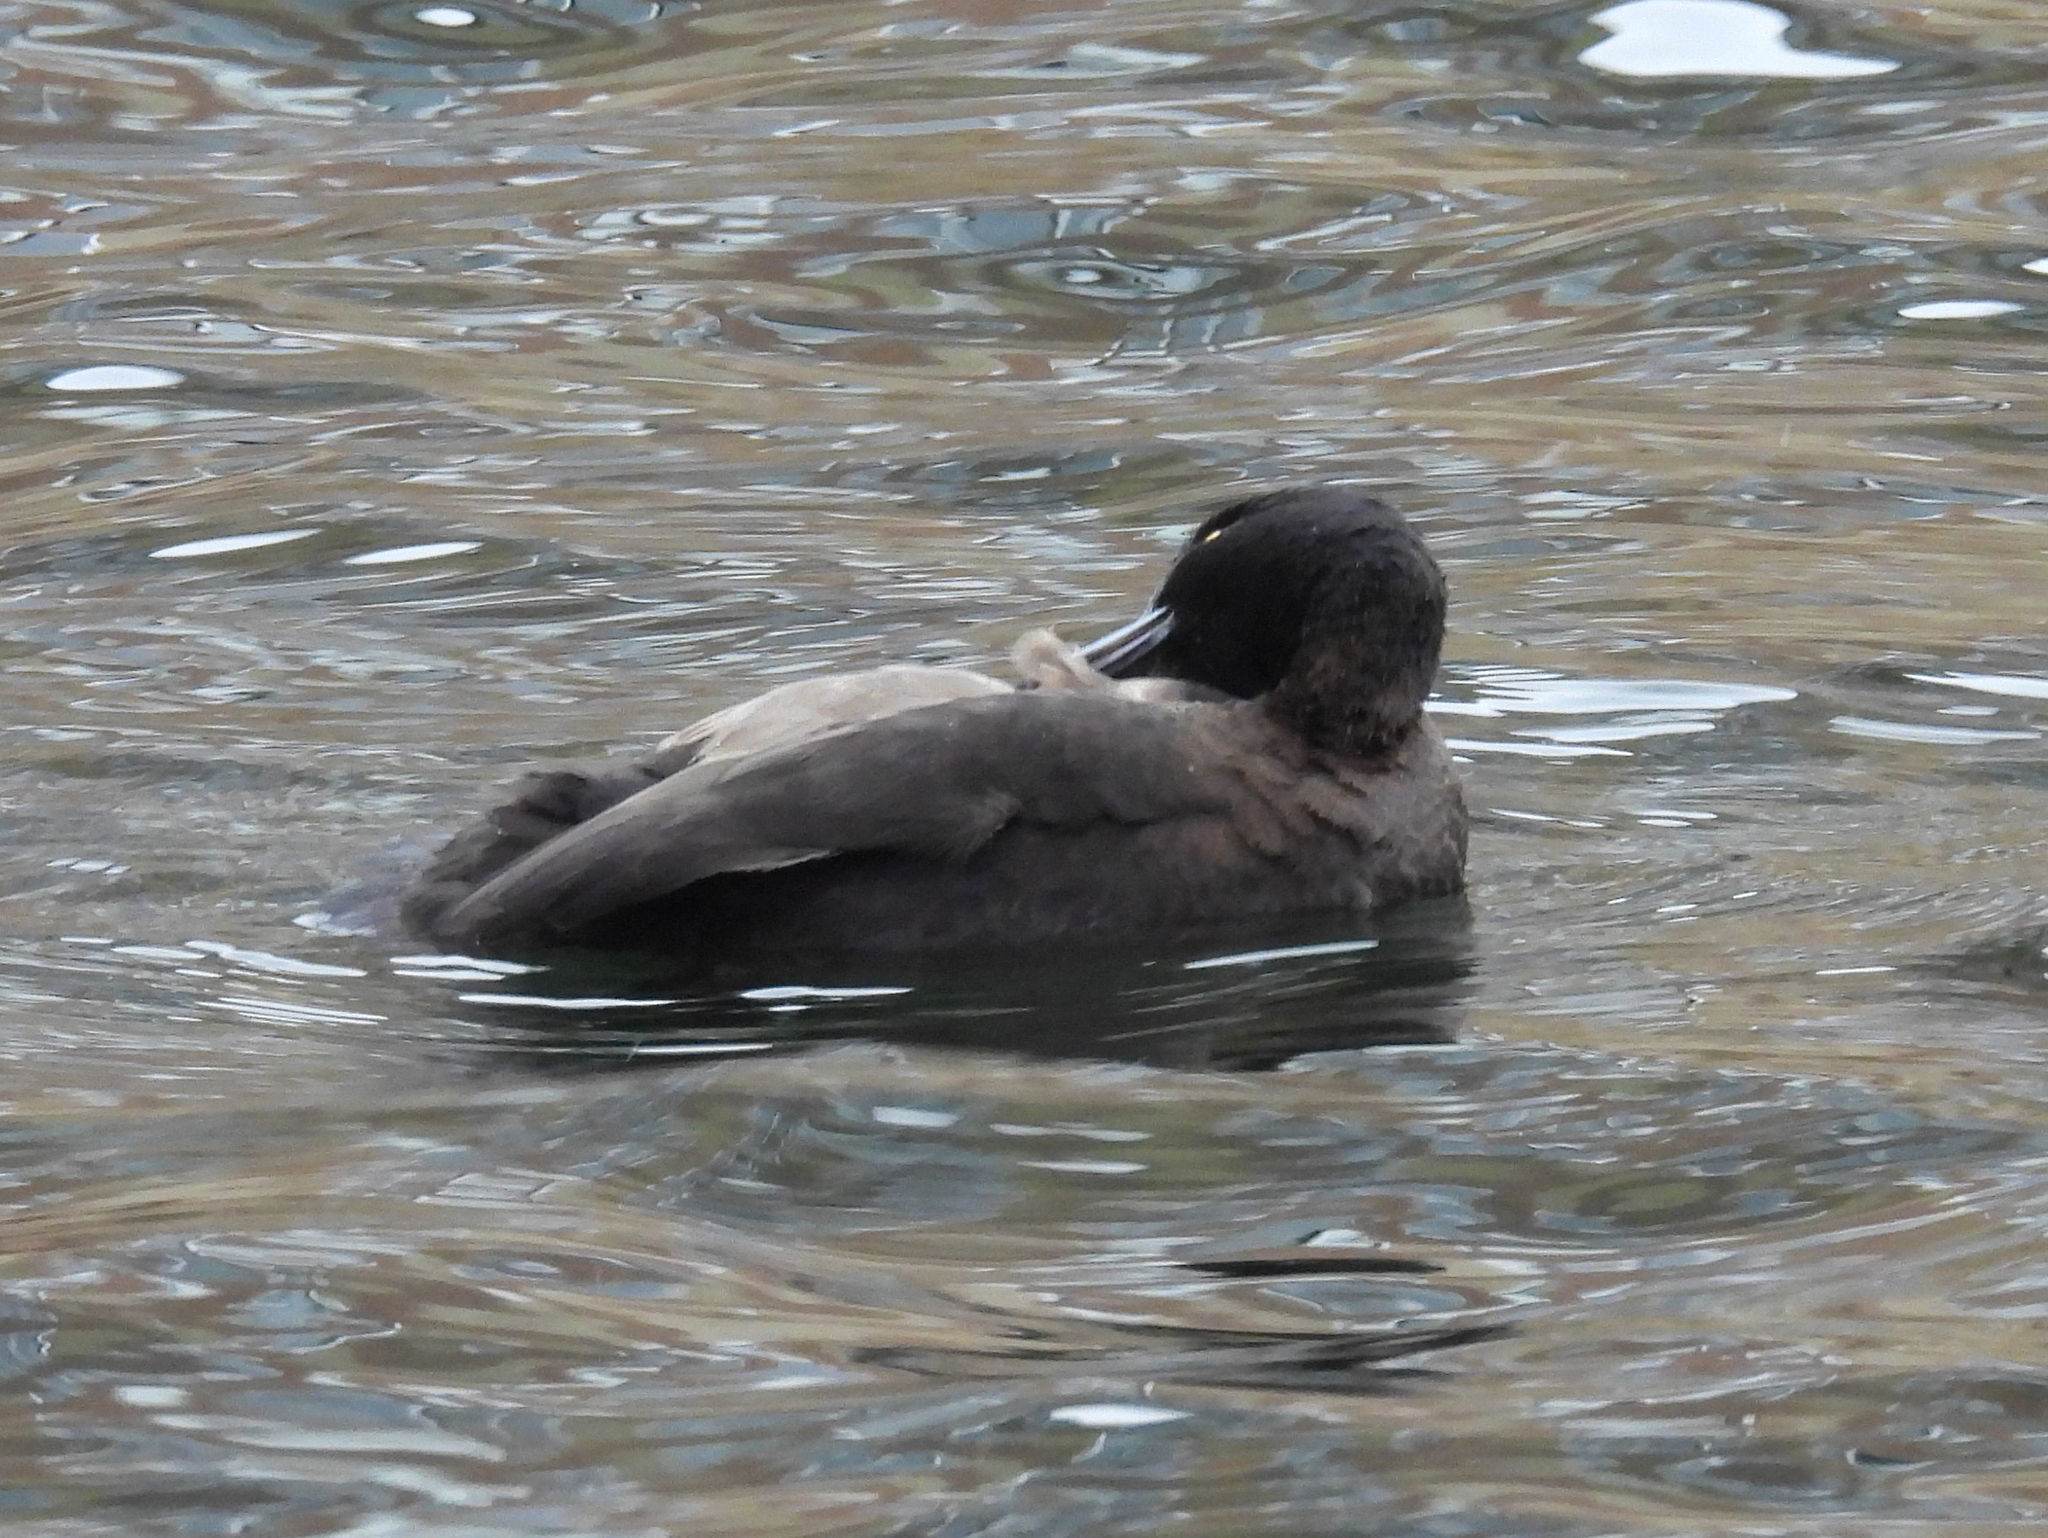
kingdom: Animalia
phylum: Chordata
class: Aves
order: Anseriformes
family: Anatidae
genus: Aythya
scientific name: Aythya fuligula
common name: Tufted duck
